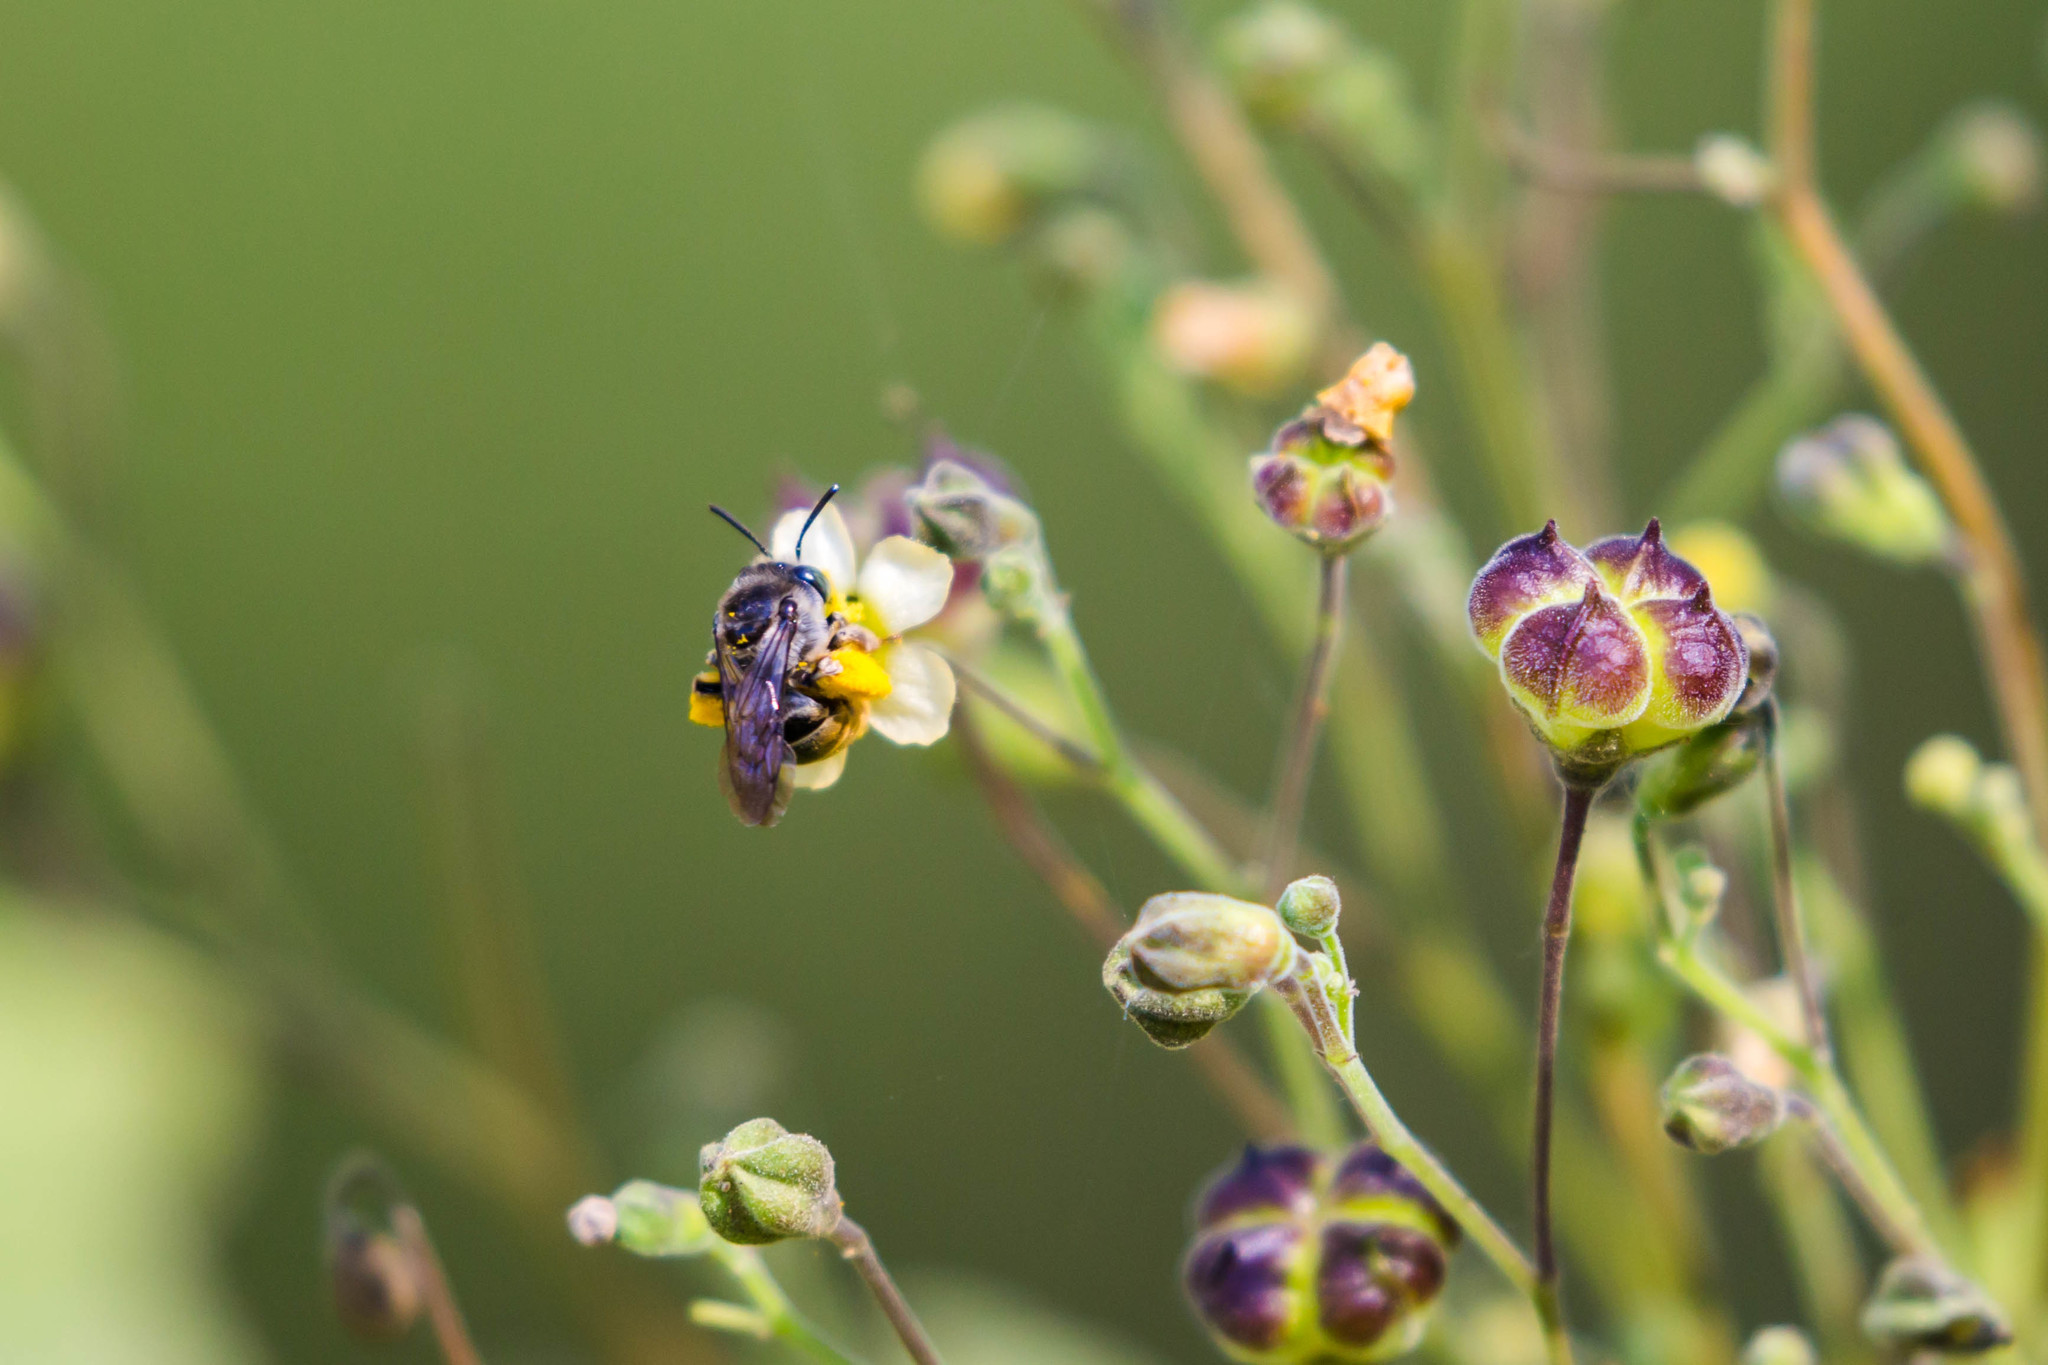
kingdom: Animalia
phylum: Arthropoda
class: Insecta
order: Hymenoptera
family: Apidae
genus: Melissoptila
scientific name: Melissoptila otomita
